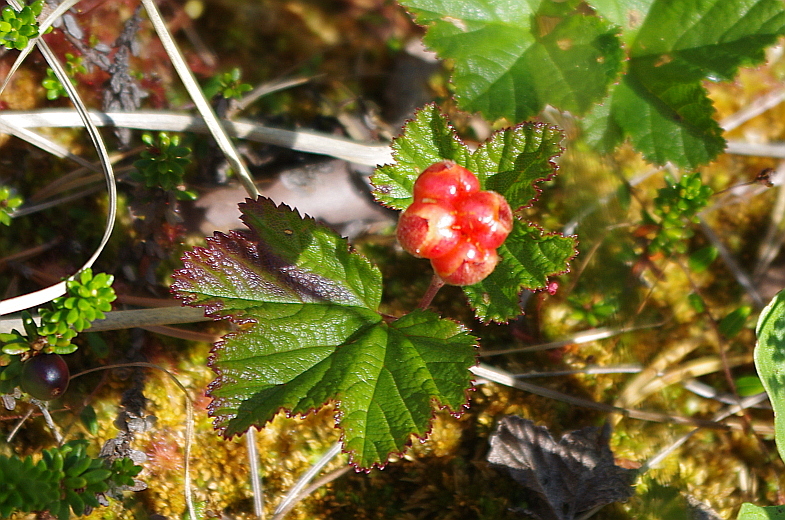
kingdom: Plantae
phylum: Tracheophyta
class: Magnoliopsida
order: Rosales
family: Rosaceae
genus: Rubus
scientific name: Rubus chamaemorus
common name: Cloudberry
